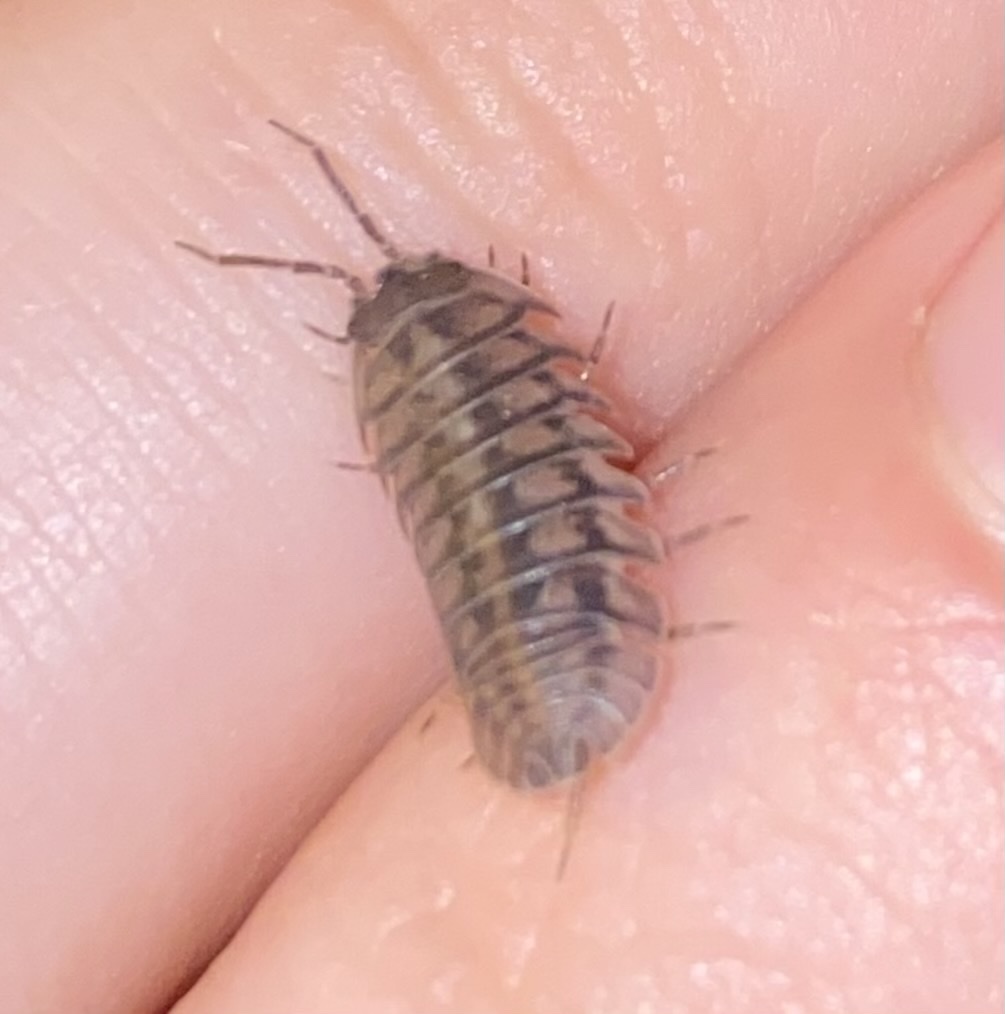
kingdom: Animalia
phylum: Arthropoda
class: Malacostraca
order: Isopoda
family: Armadillidiidae
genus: Armadillidium
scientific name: Armadillidium nasatum
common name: Isopod
